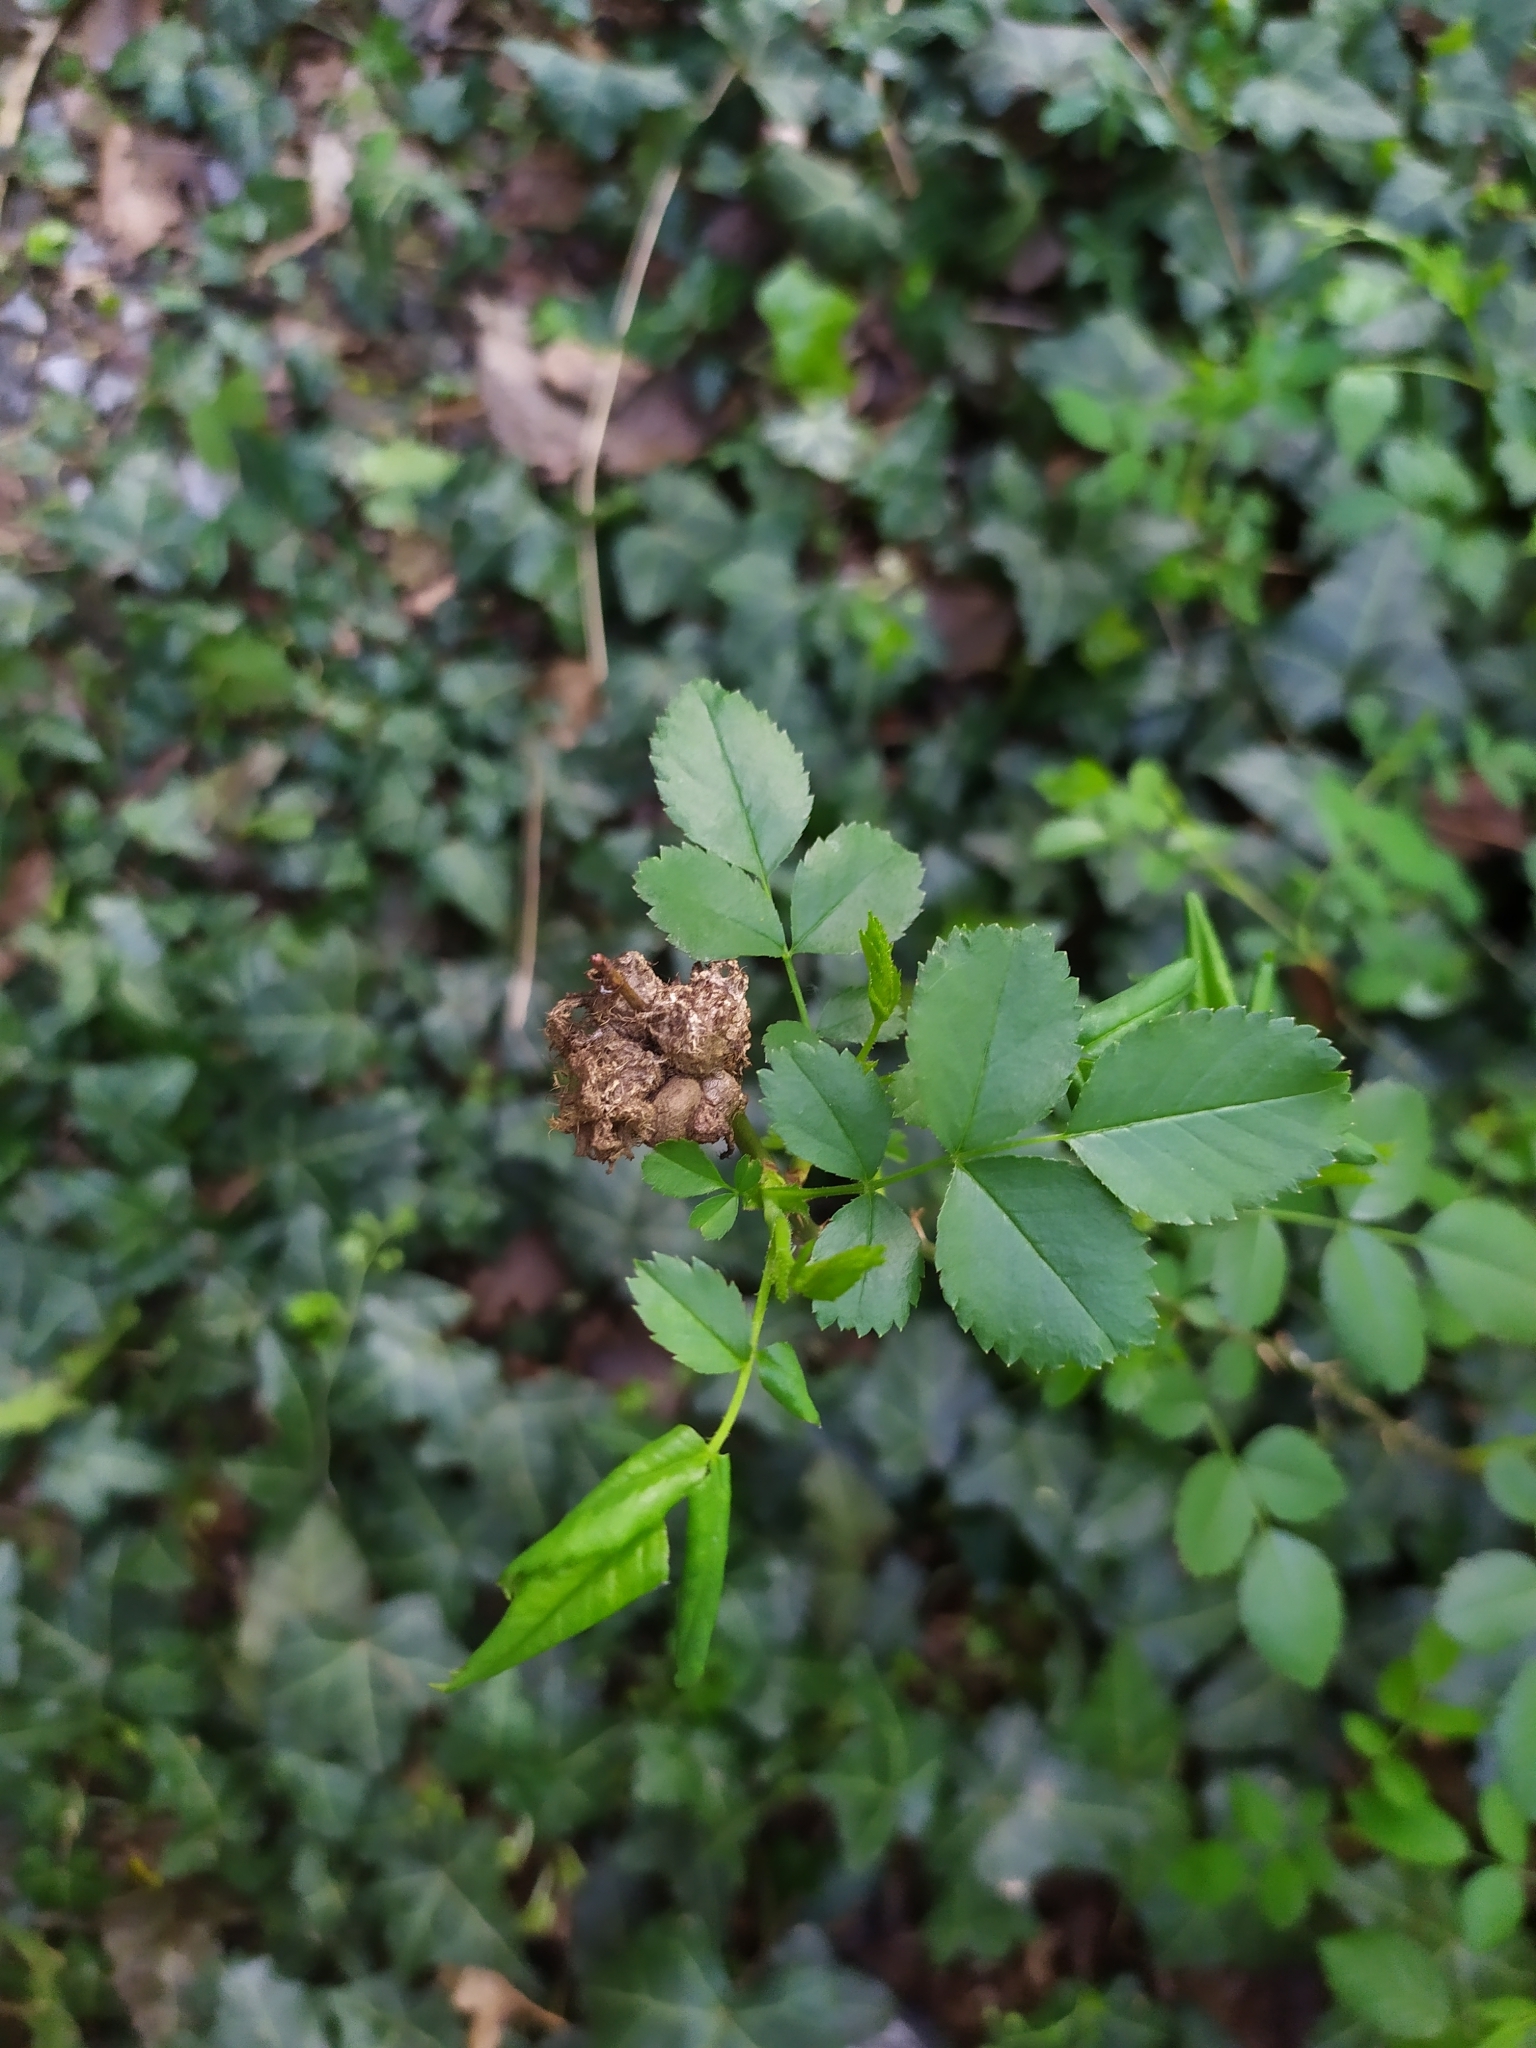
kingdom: Animalia
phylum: Arthropoda
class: Insecta
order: Hymenoptera
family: Cynipidae
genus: Diplolepis
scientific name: Diplolepis rosae
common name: Bedeguar gall
